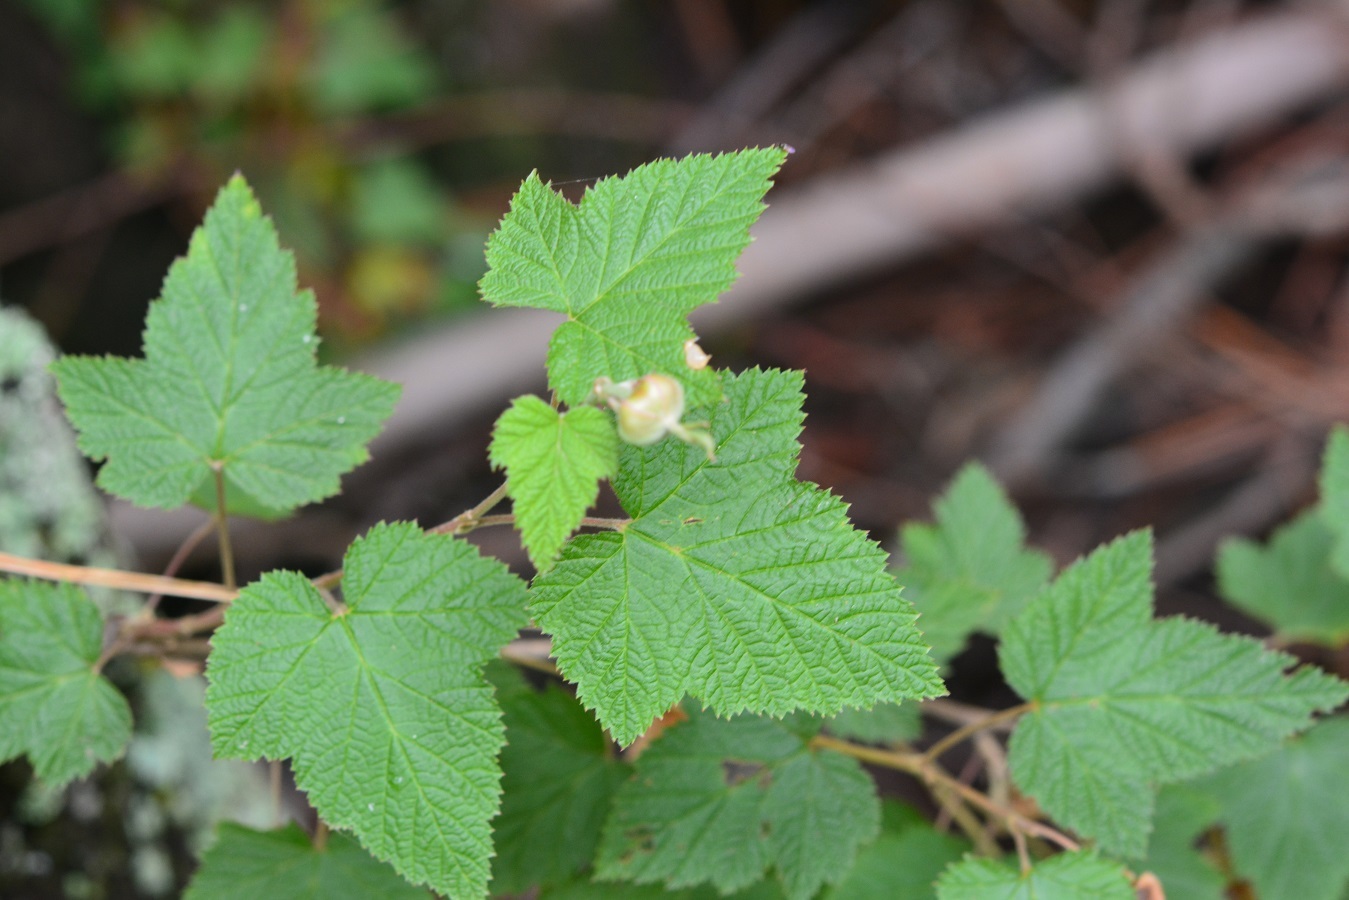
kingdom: Plantae
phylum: Tracheophyta
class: Magnoliopsida
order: Rosales
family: Rosaceae
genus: Rubus
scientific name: Rubus trilobus
